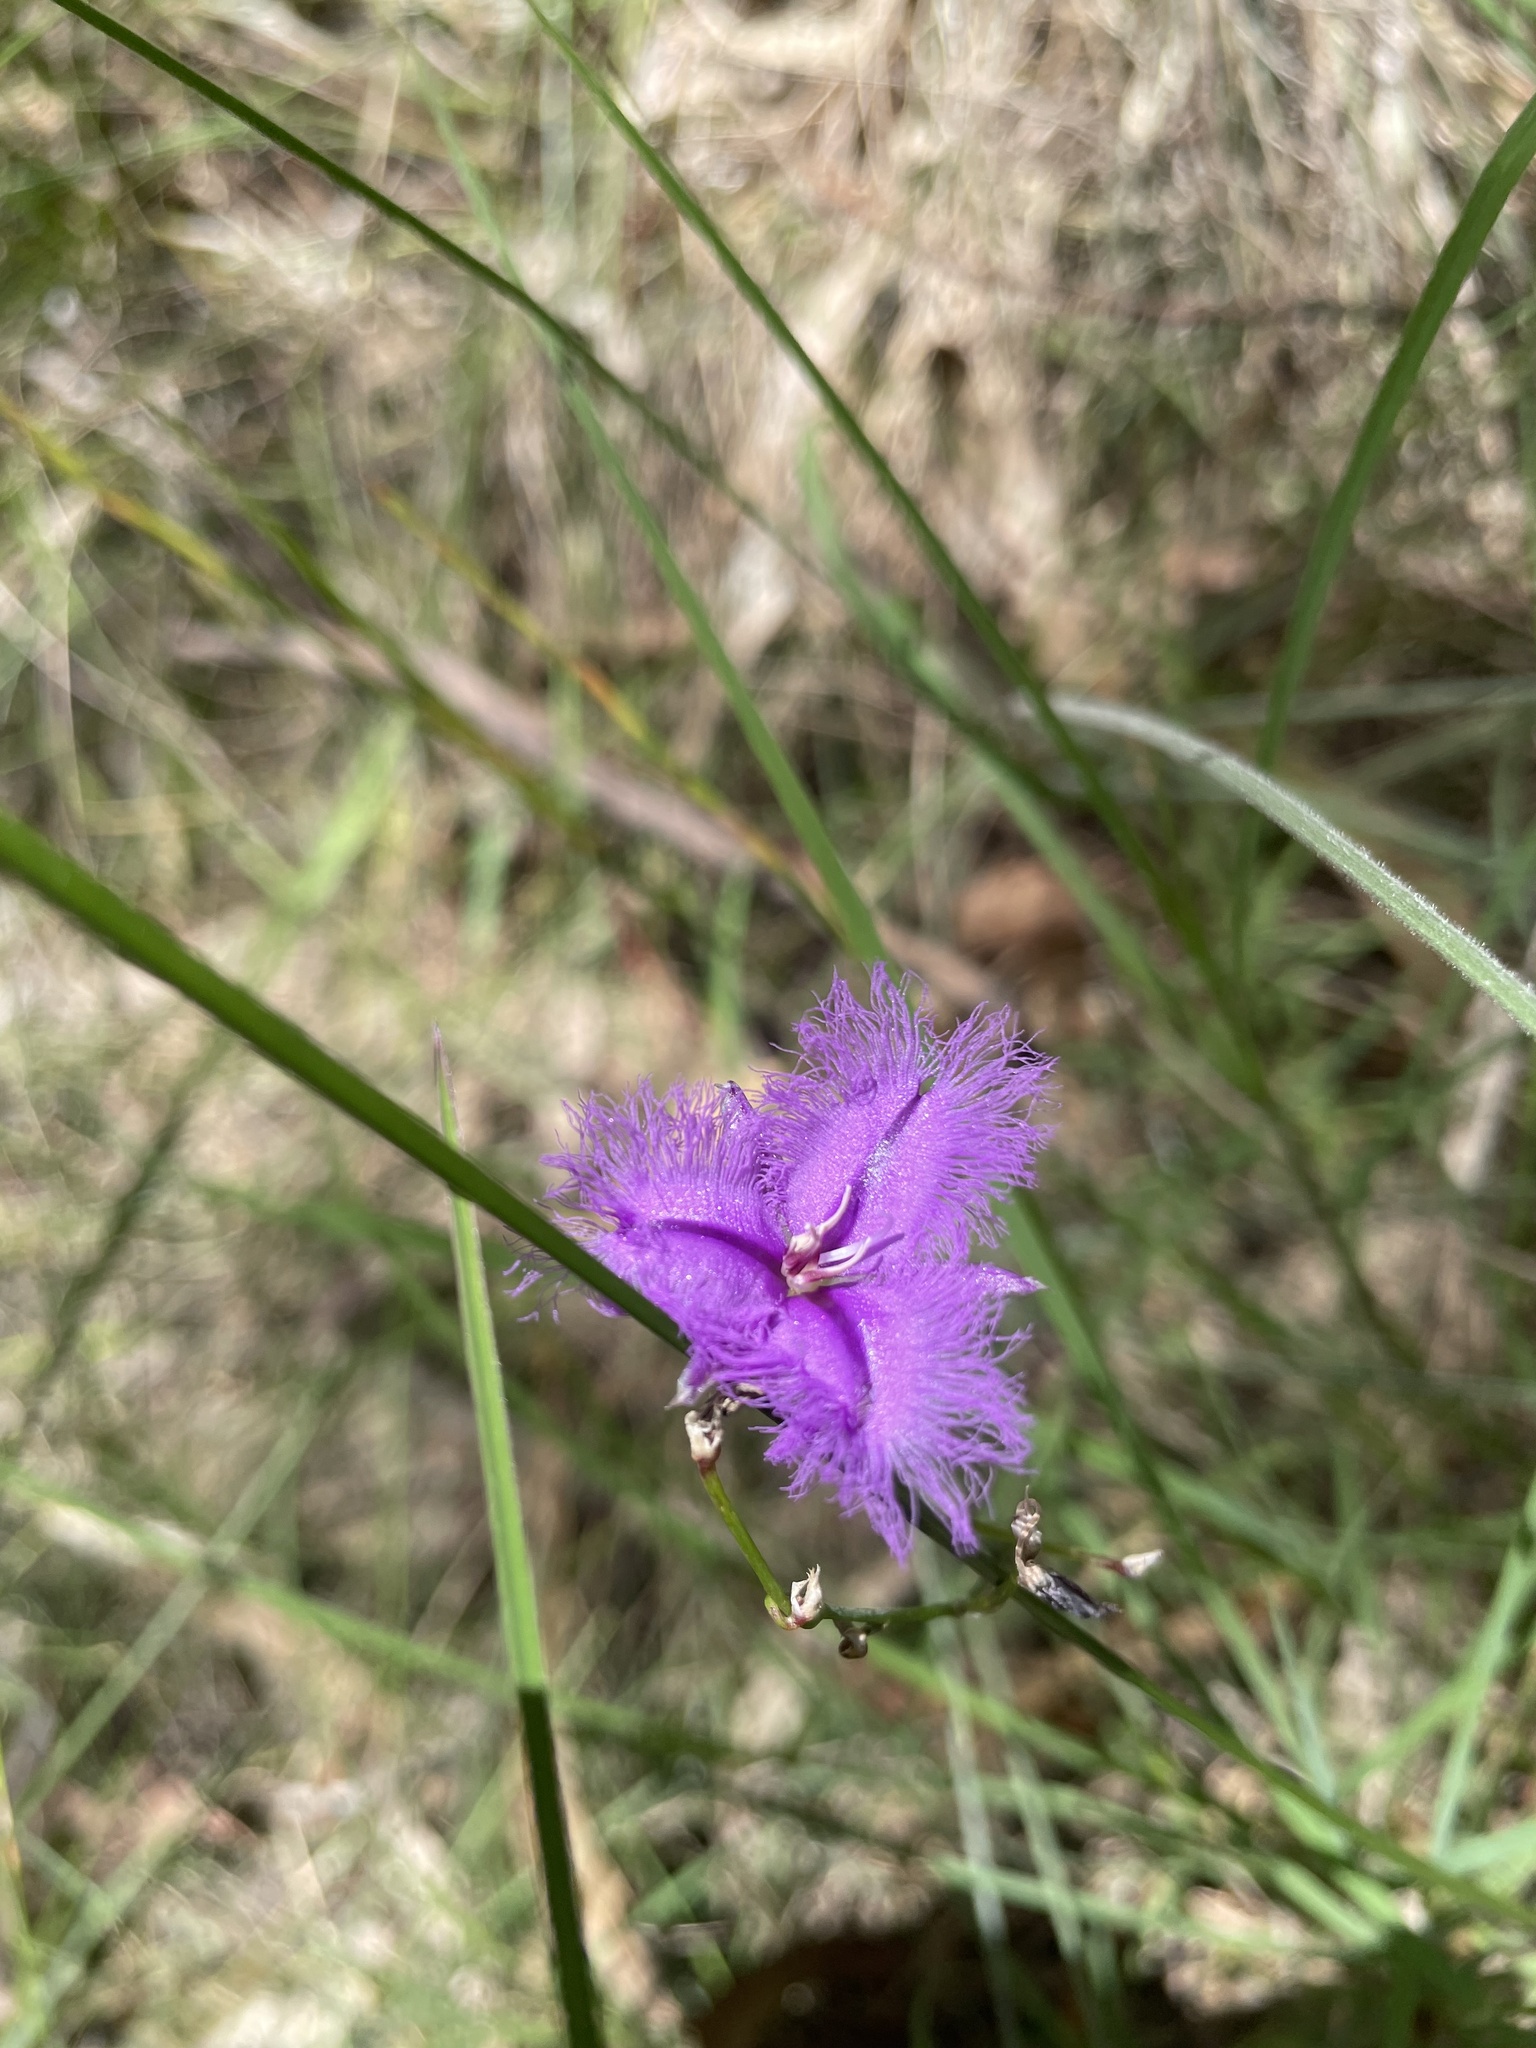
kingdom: Plantae
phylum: Tracheophyta
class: Liliopsida
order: Asparagales
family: Asparagaceae
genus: Thysanotus
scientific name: Thysanotus tuberosus
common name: Common fringed-lily
